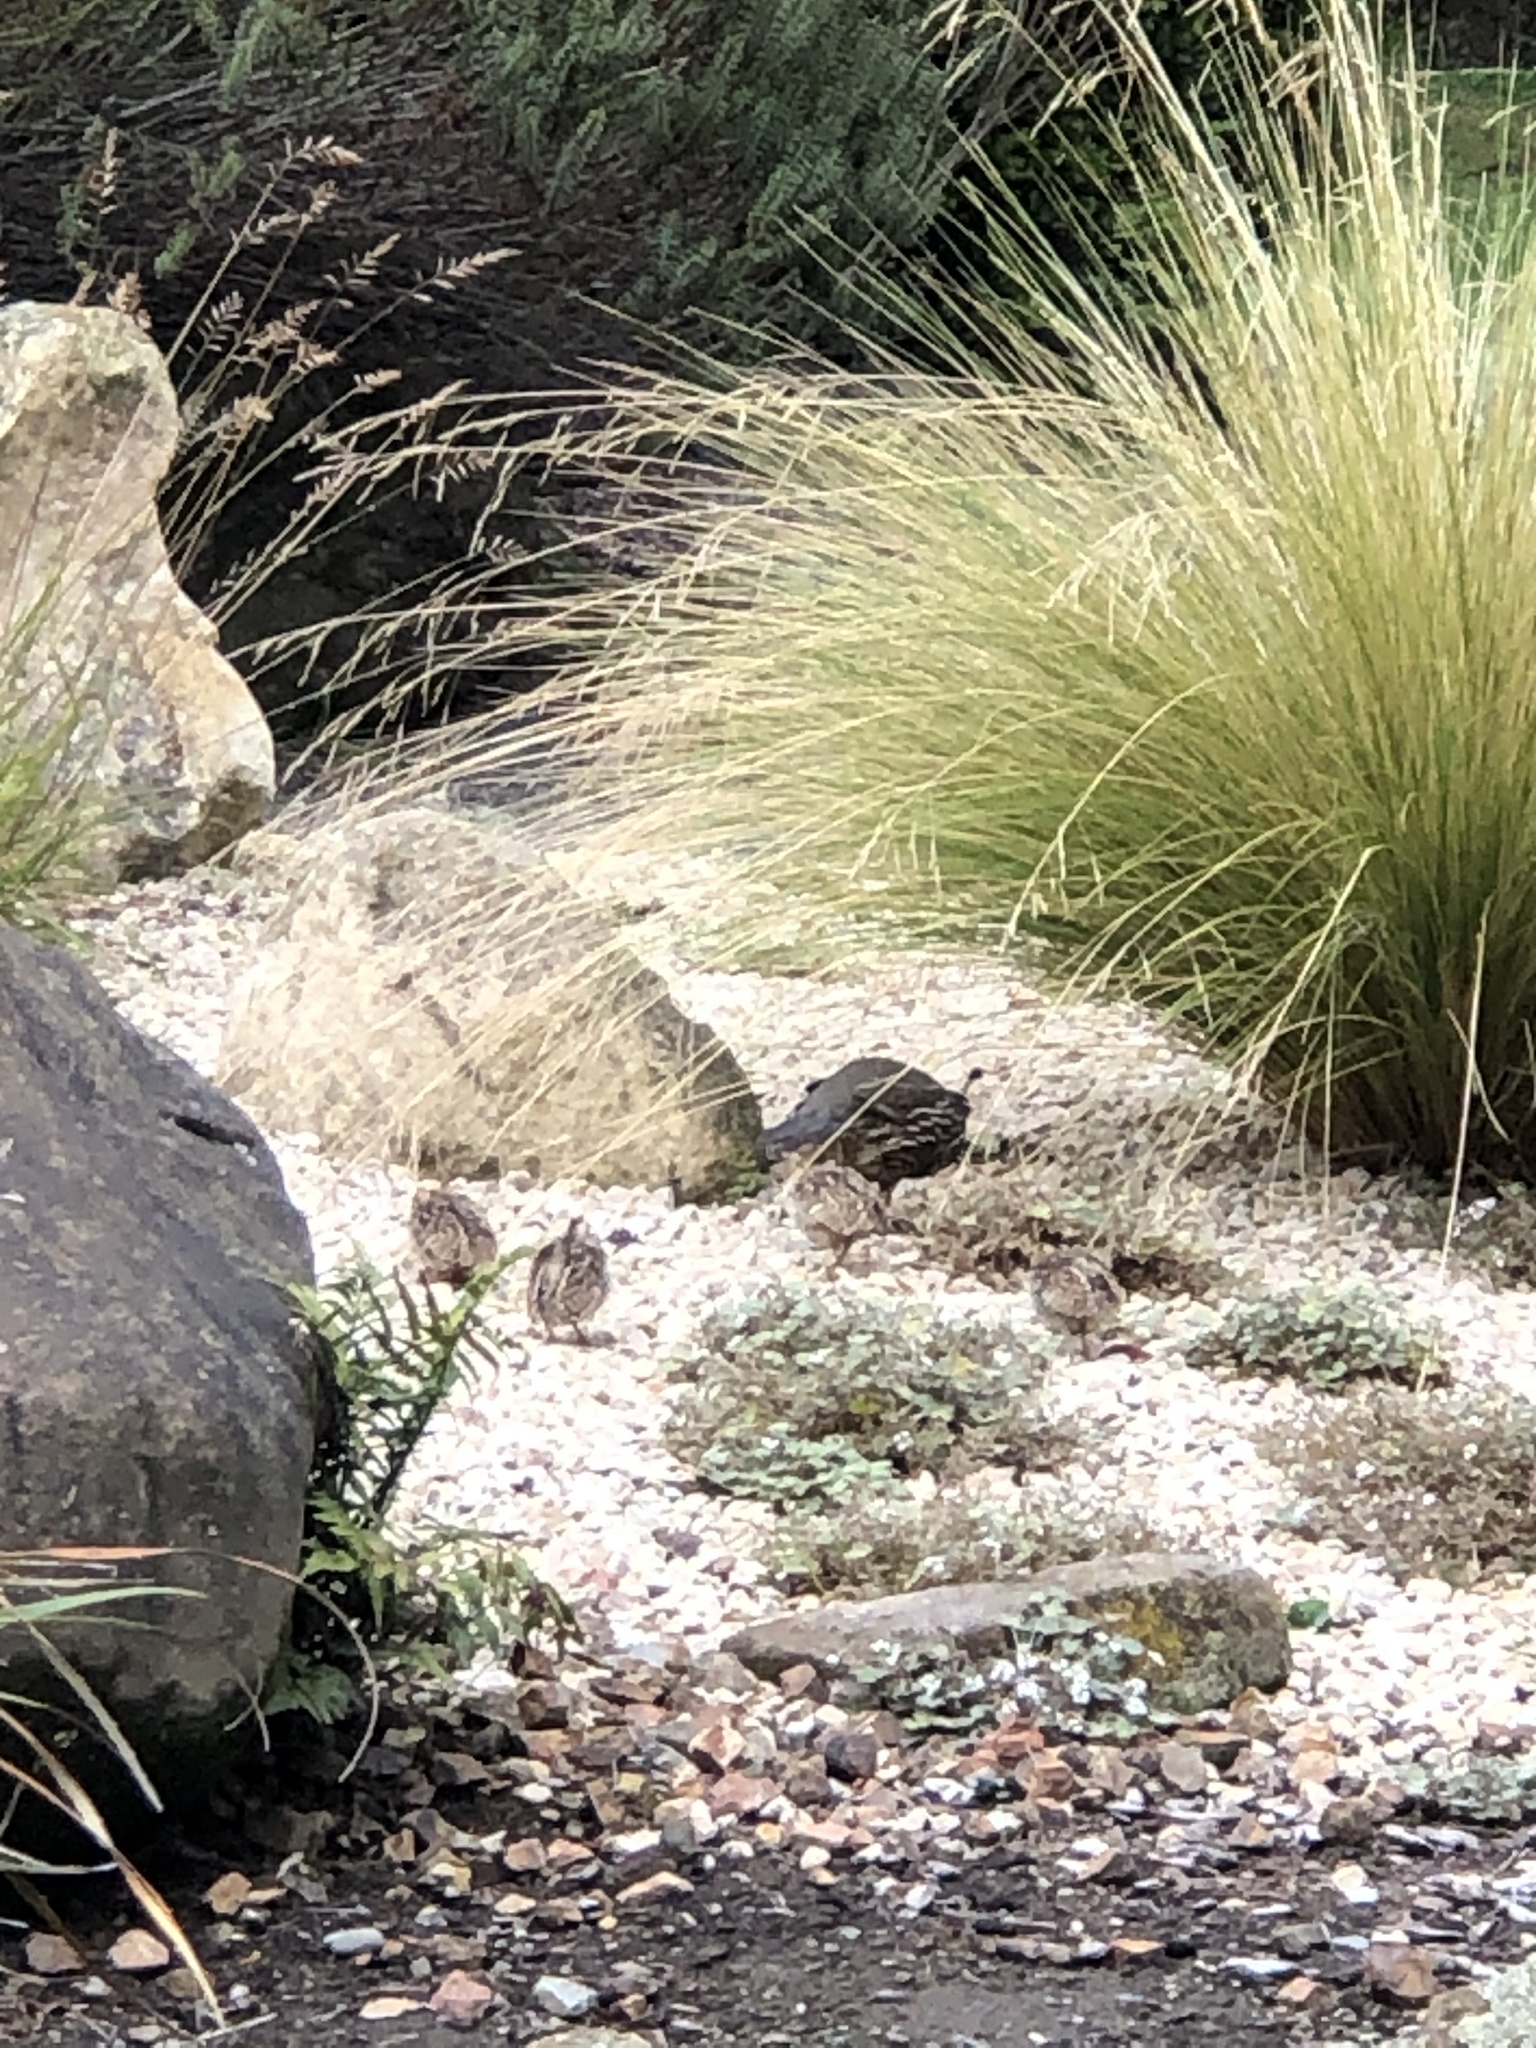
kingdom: Animalia
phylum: Chordata
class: Aves
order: Galliformes
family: Odontophoridae
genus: Callipepla
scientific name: Callipepla californica
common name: California quail
